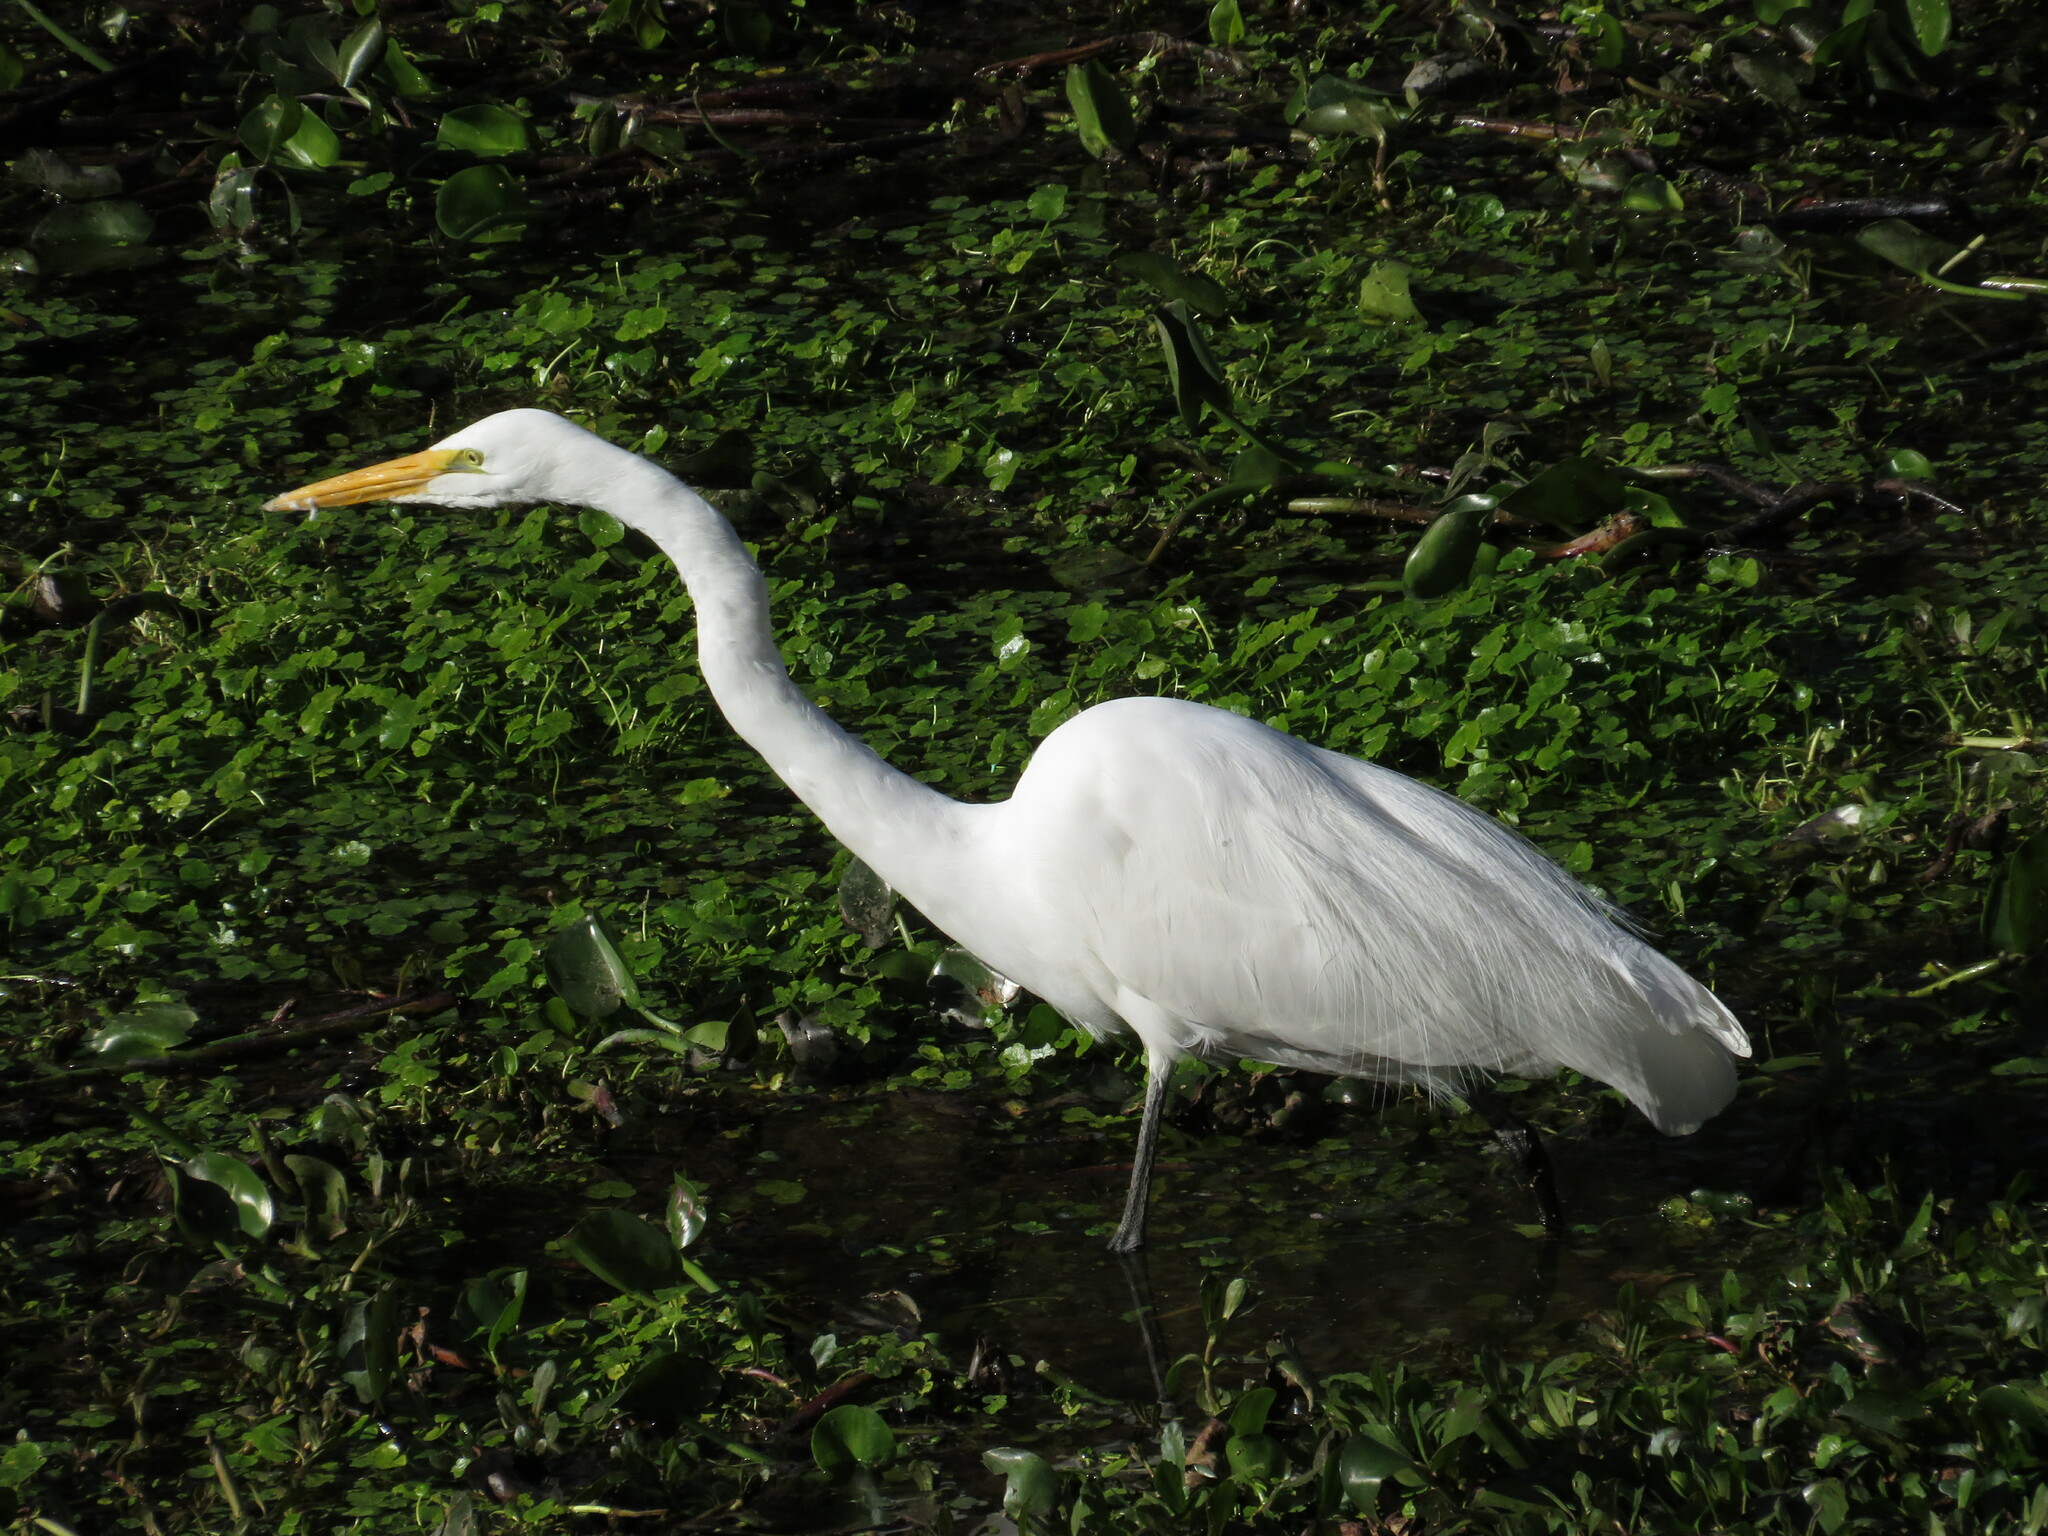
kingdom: Animalia
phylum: Chordata
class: Aves
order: Pelecaniformes
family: Ardeidae
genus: Ardea
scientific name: Ardea alba
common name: Great egret
